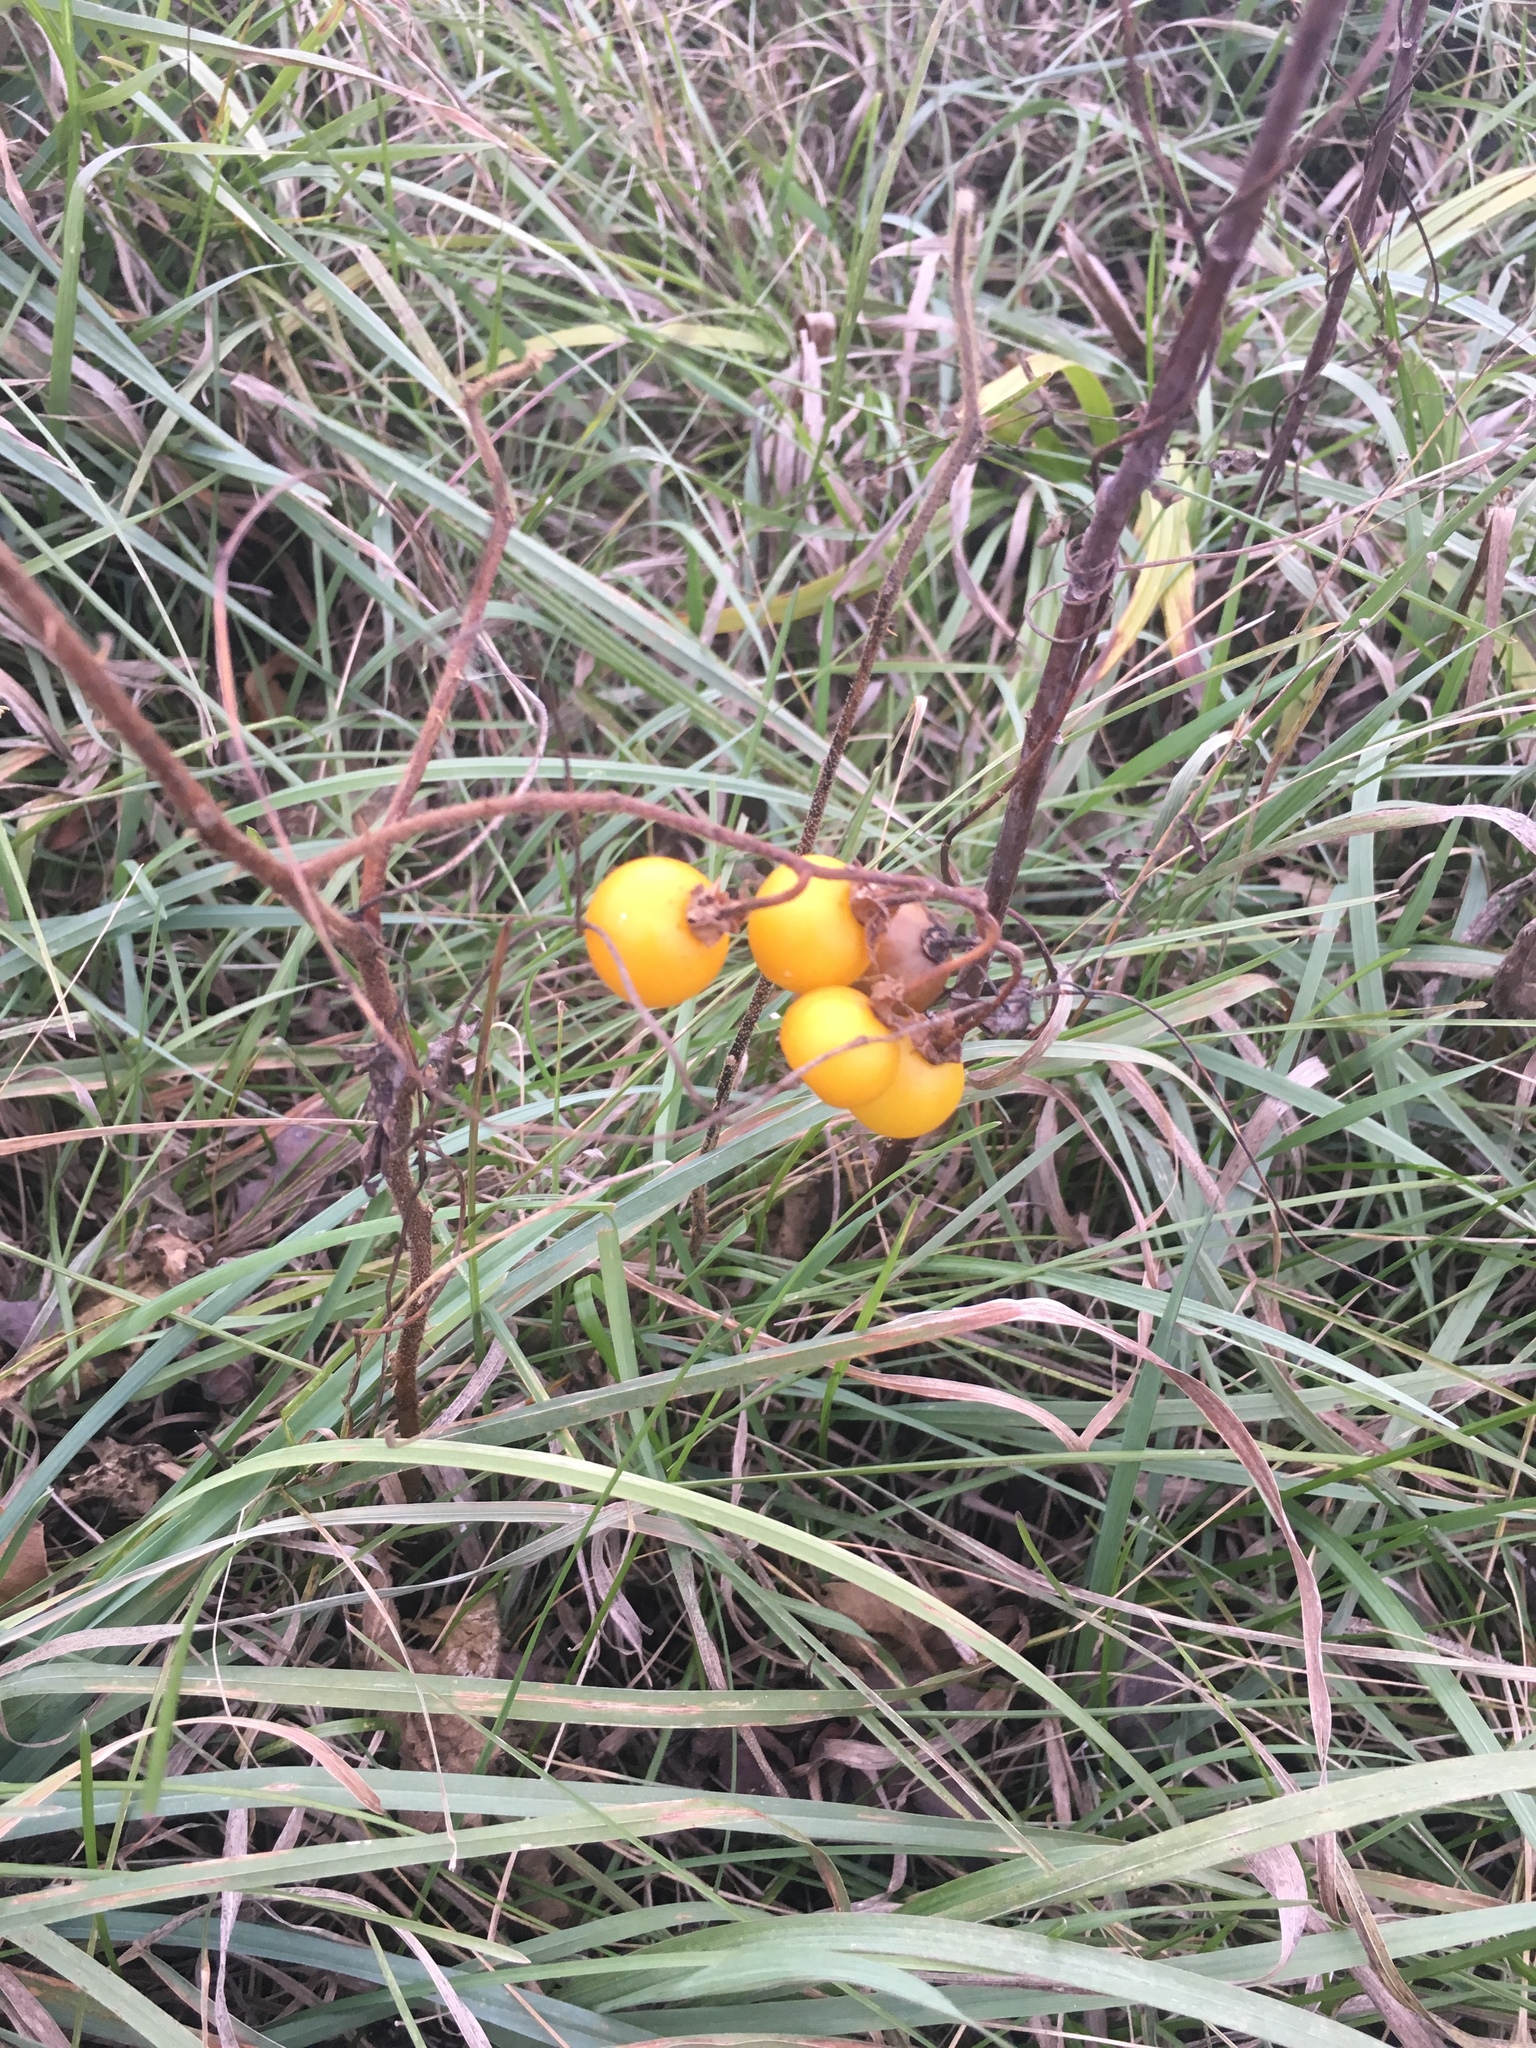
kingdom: Plantae
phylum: Tracheophyta
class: Magnoliopsida
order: Solanales
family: Solanaceae
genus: Solanum
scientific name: Solanum carolinense
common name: Horse-nettle
